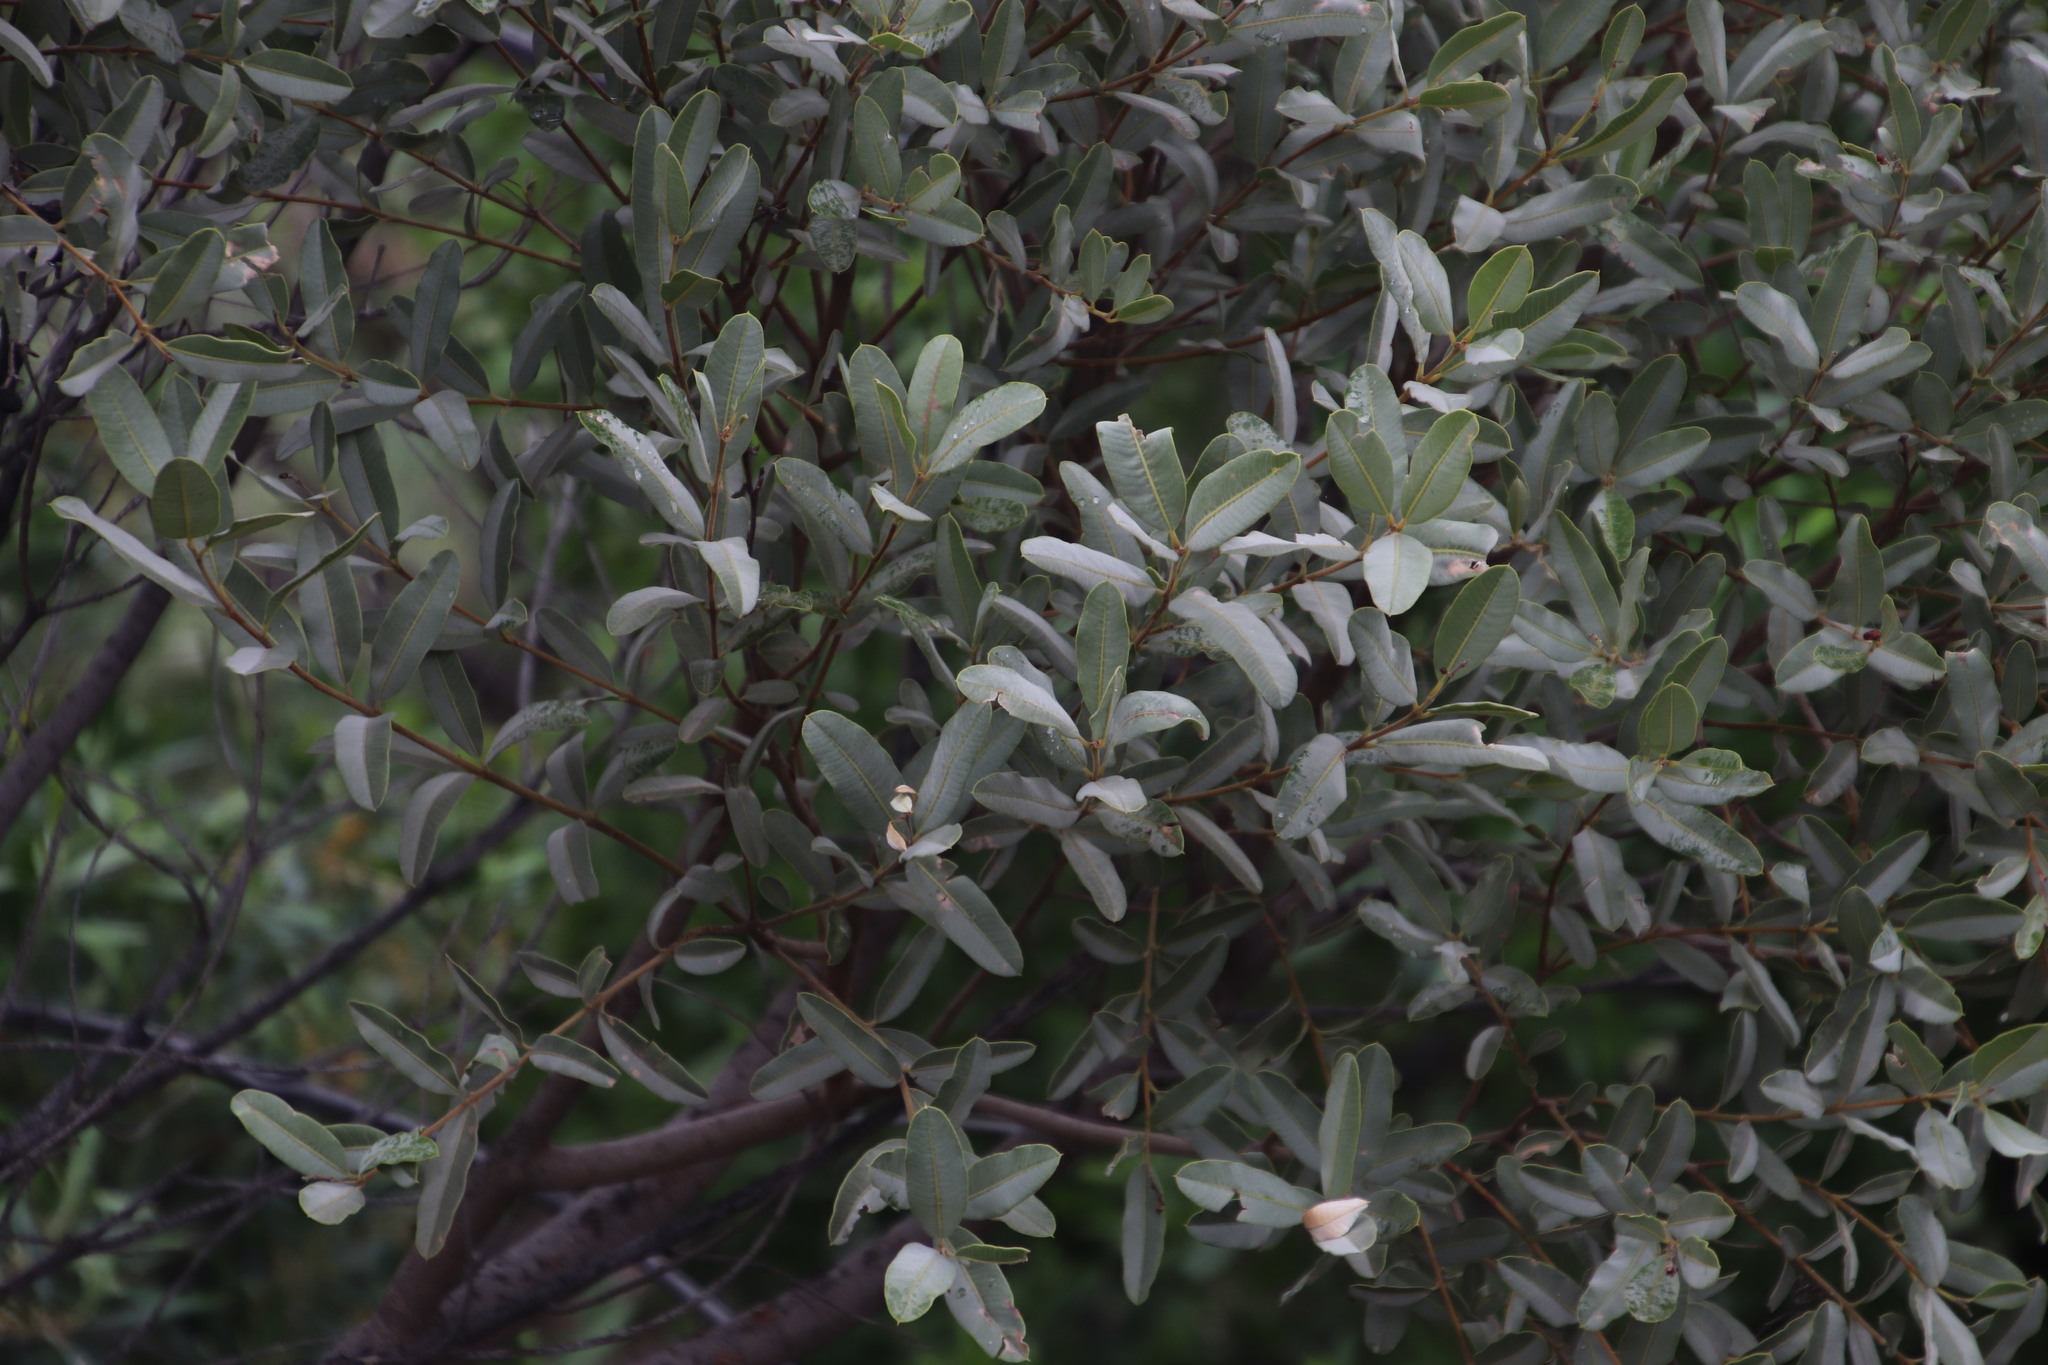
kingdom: Plantae
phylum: Tracheophyta
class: Magnoliopsida
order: Sapindales
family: Anacardiaceae
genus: Ozoroa
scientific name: Ozoroa paniculosa
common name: Bushveld ozoroa
